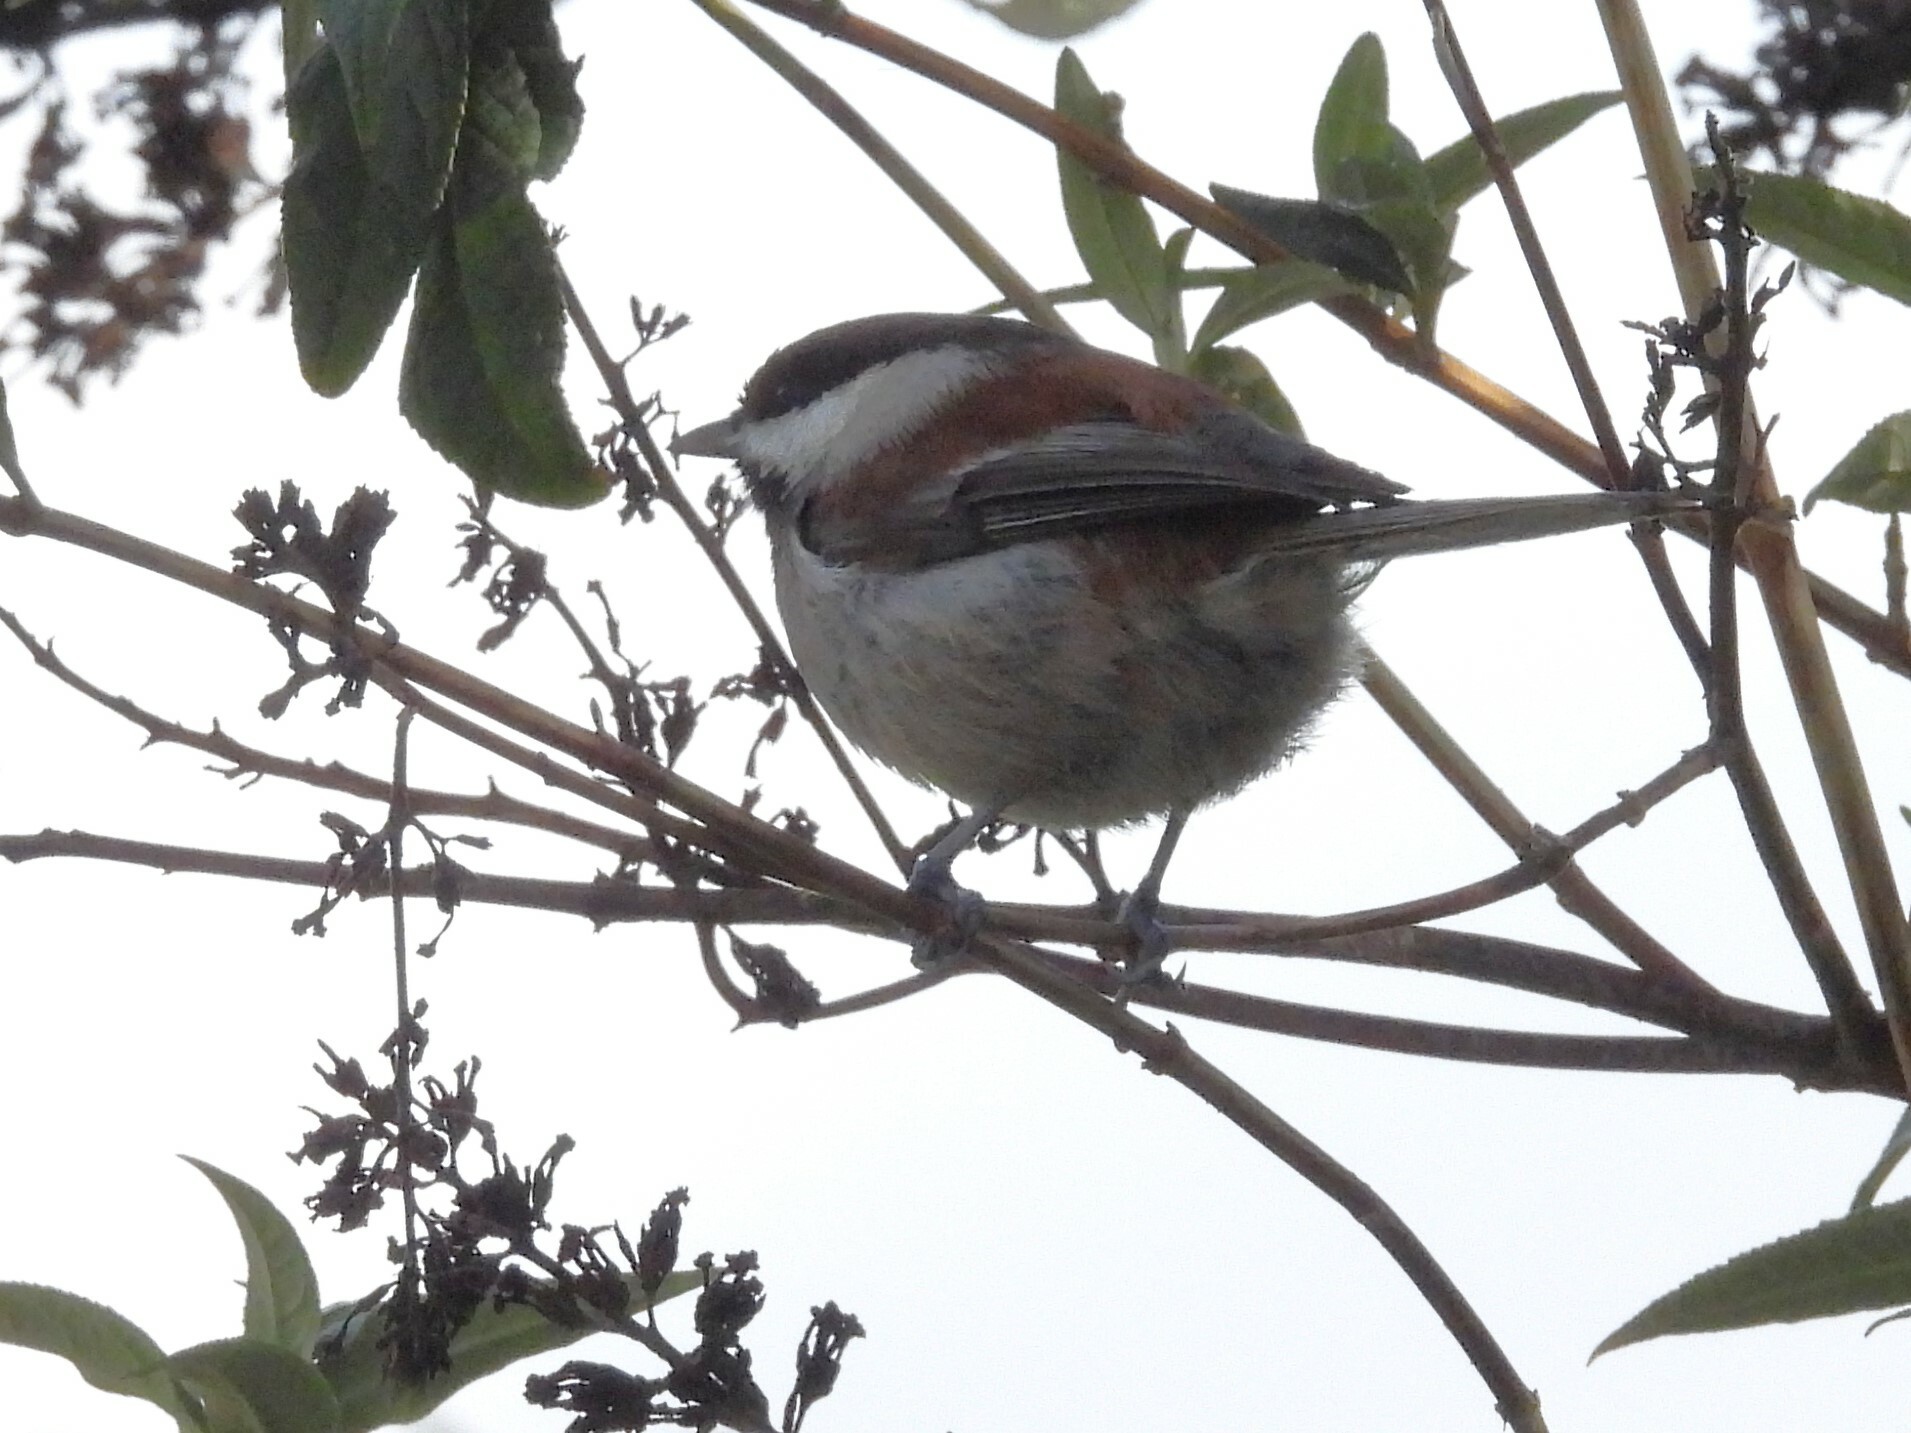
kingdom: Animalia
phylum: Chordata
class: Aves
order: Passeriformes
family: Paridae
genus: Poecile
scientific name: Poecile rufescens
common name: Chestnut-backed chickadee
